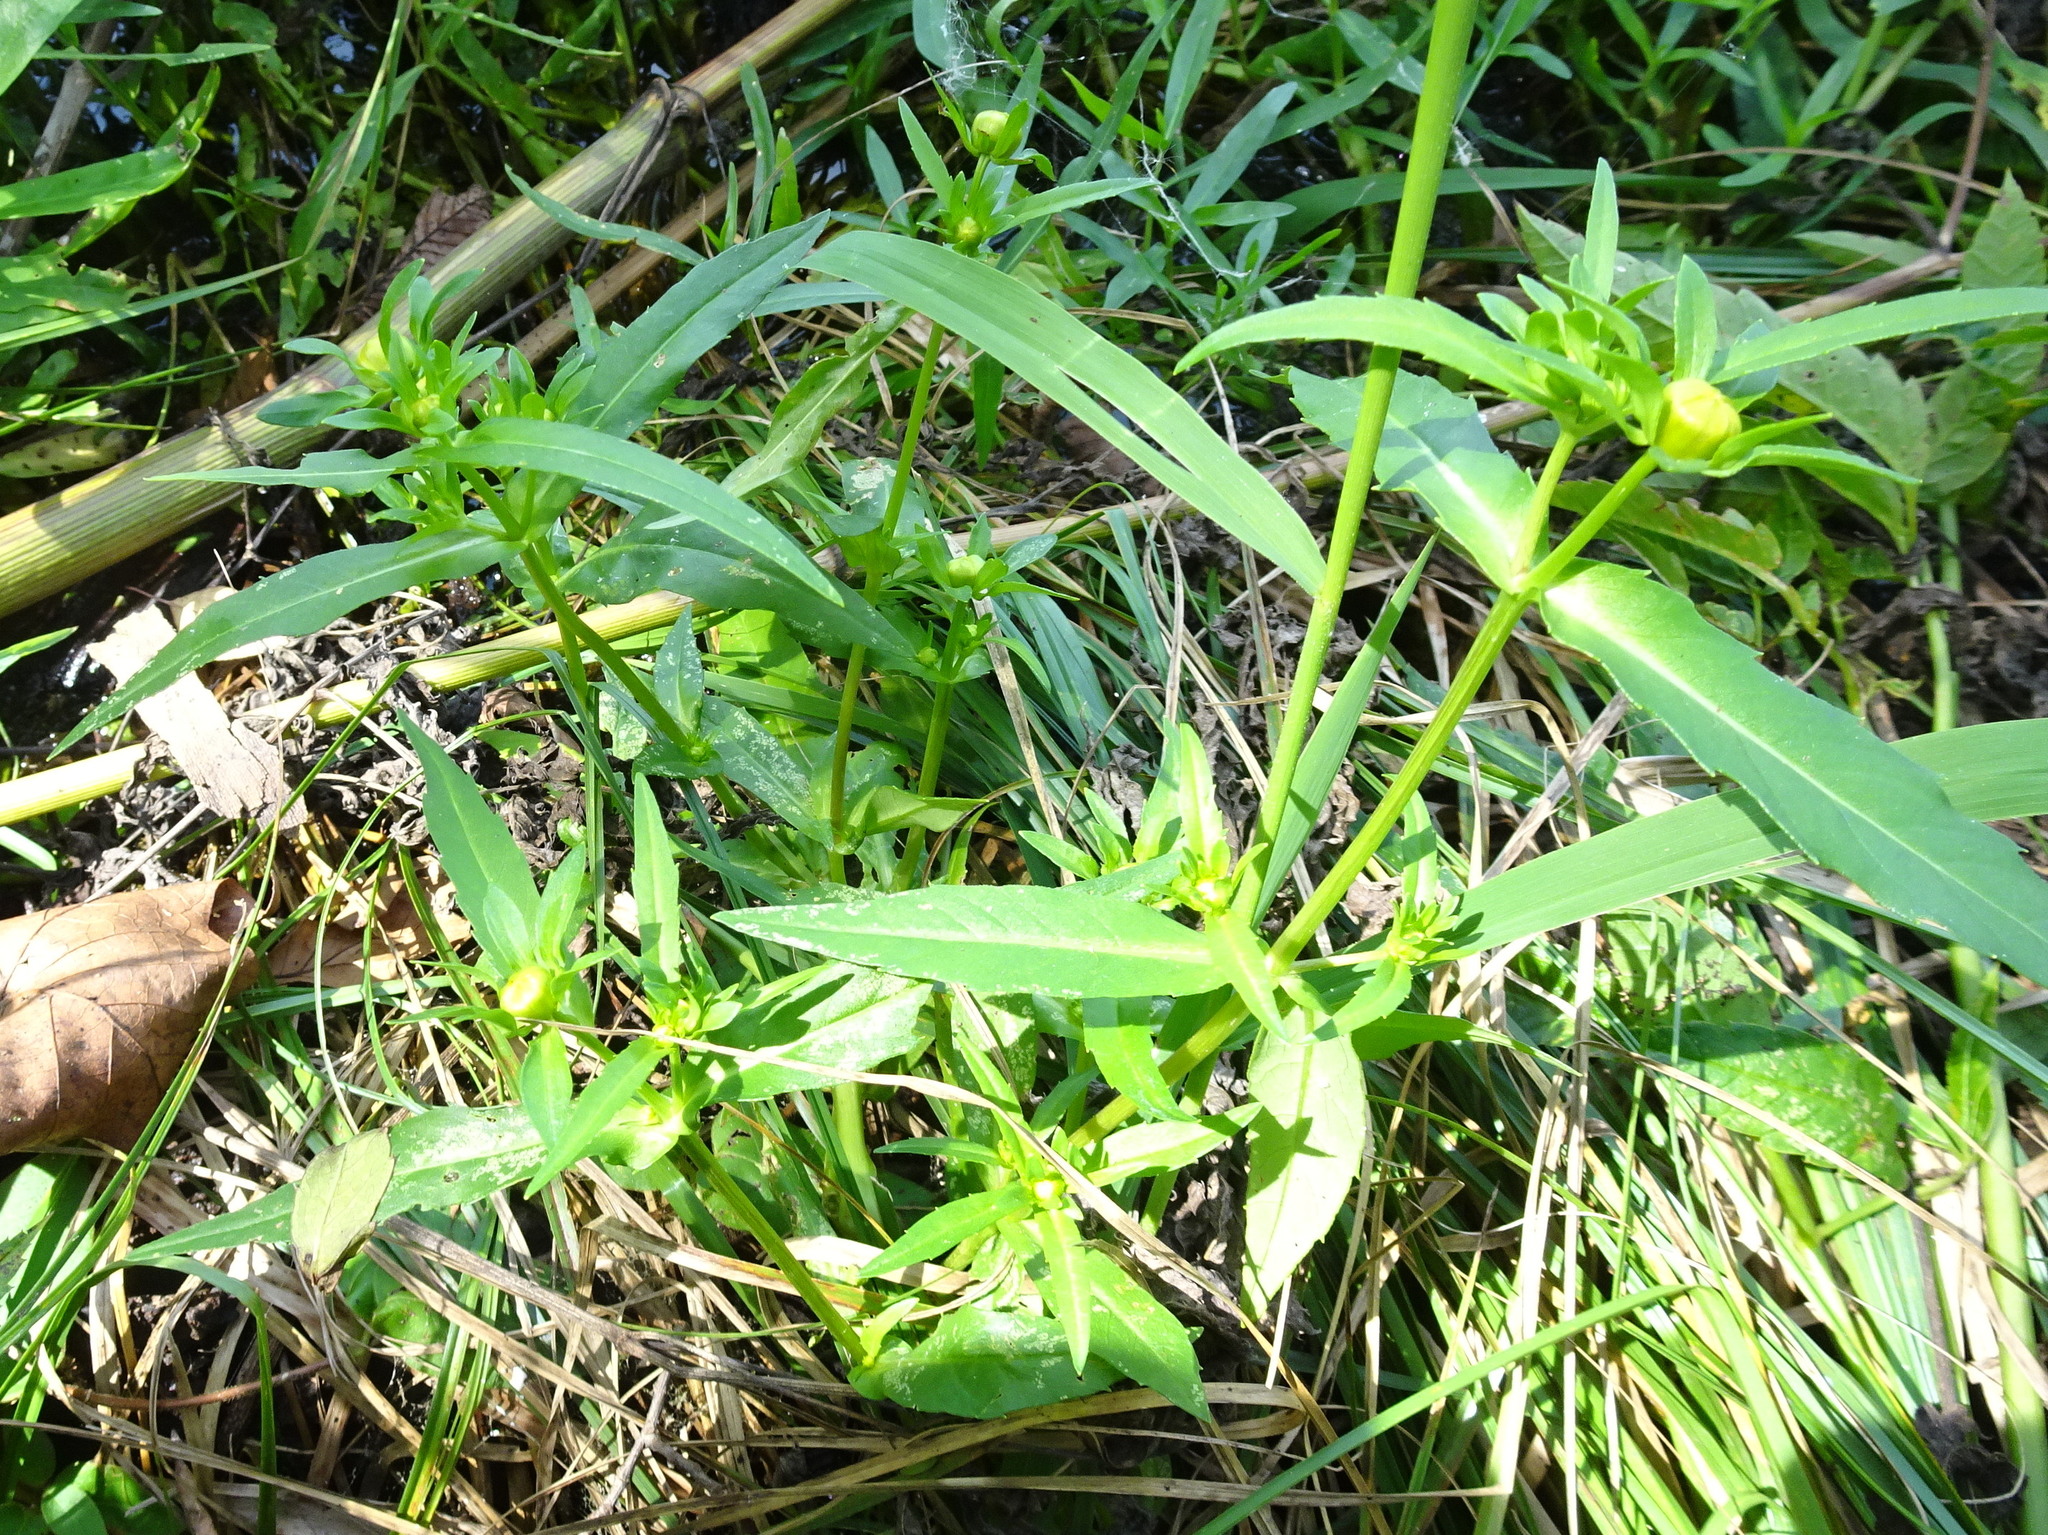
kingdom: Plantae
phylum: Tracheophyta
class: Magnoliopsida
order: Asterales
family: Asteraceae
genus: Bidens
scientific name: Bidens cernua
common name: Nodding bur-marigold
